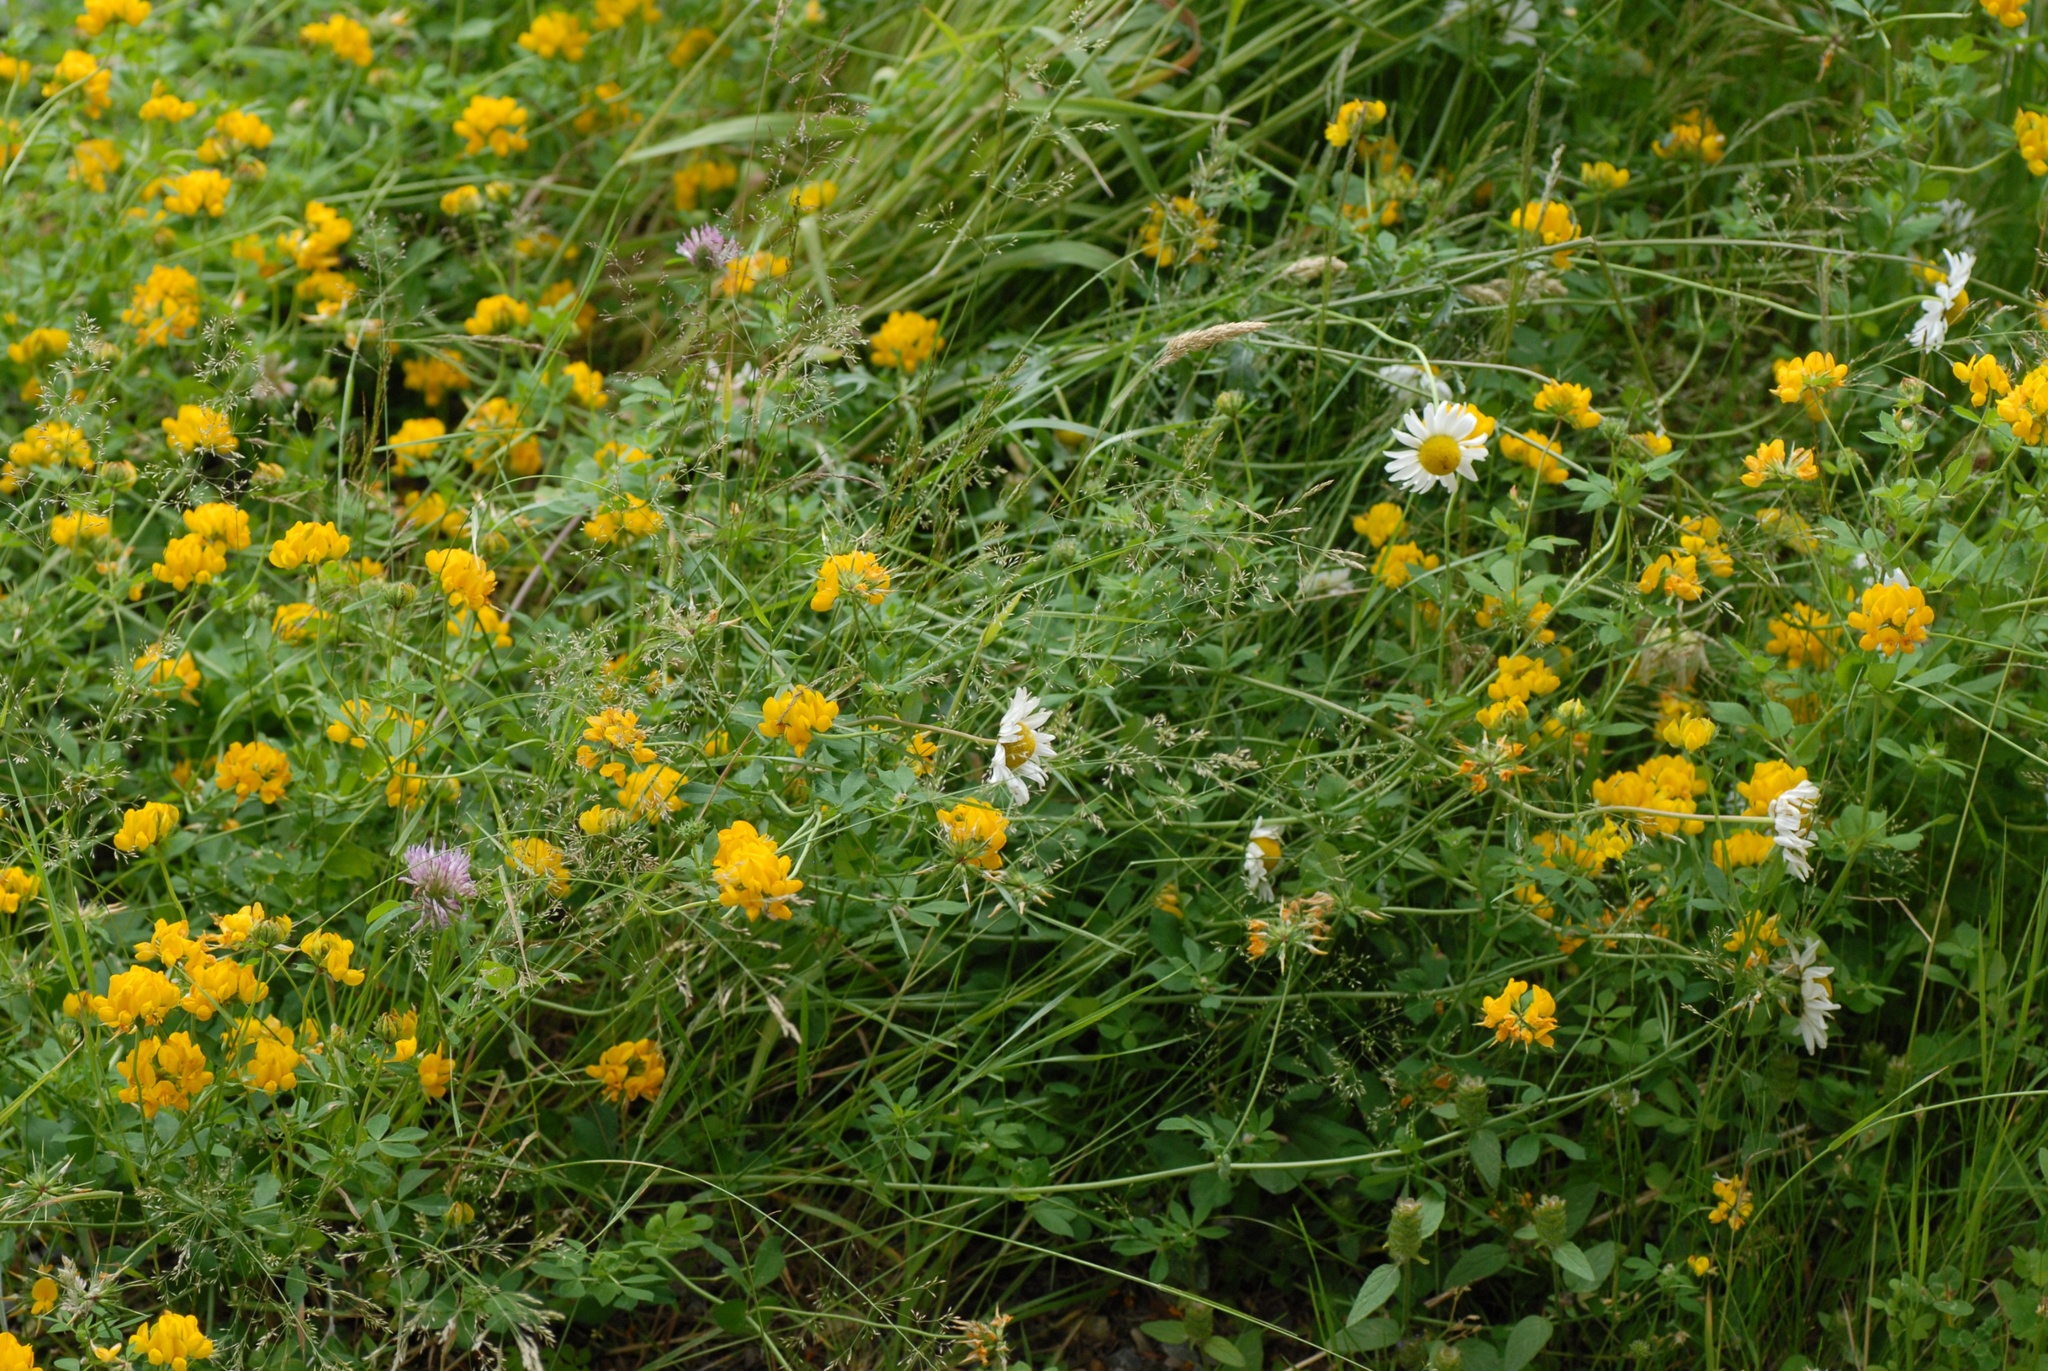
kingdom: Plantae
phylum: Tracheophyta
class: Magnoliopsida
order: Fabales
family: Fabaceae
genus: Lotus
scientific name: Lotus pedunculatus
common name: Greater birdsfoot-trefoil
